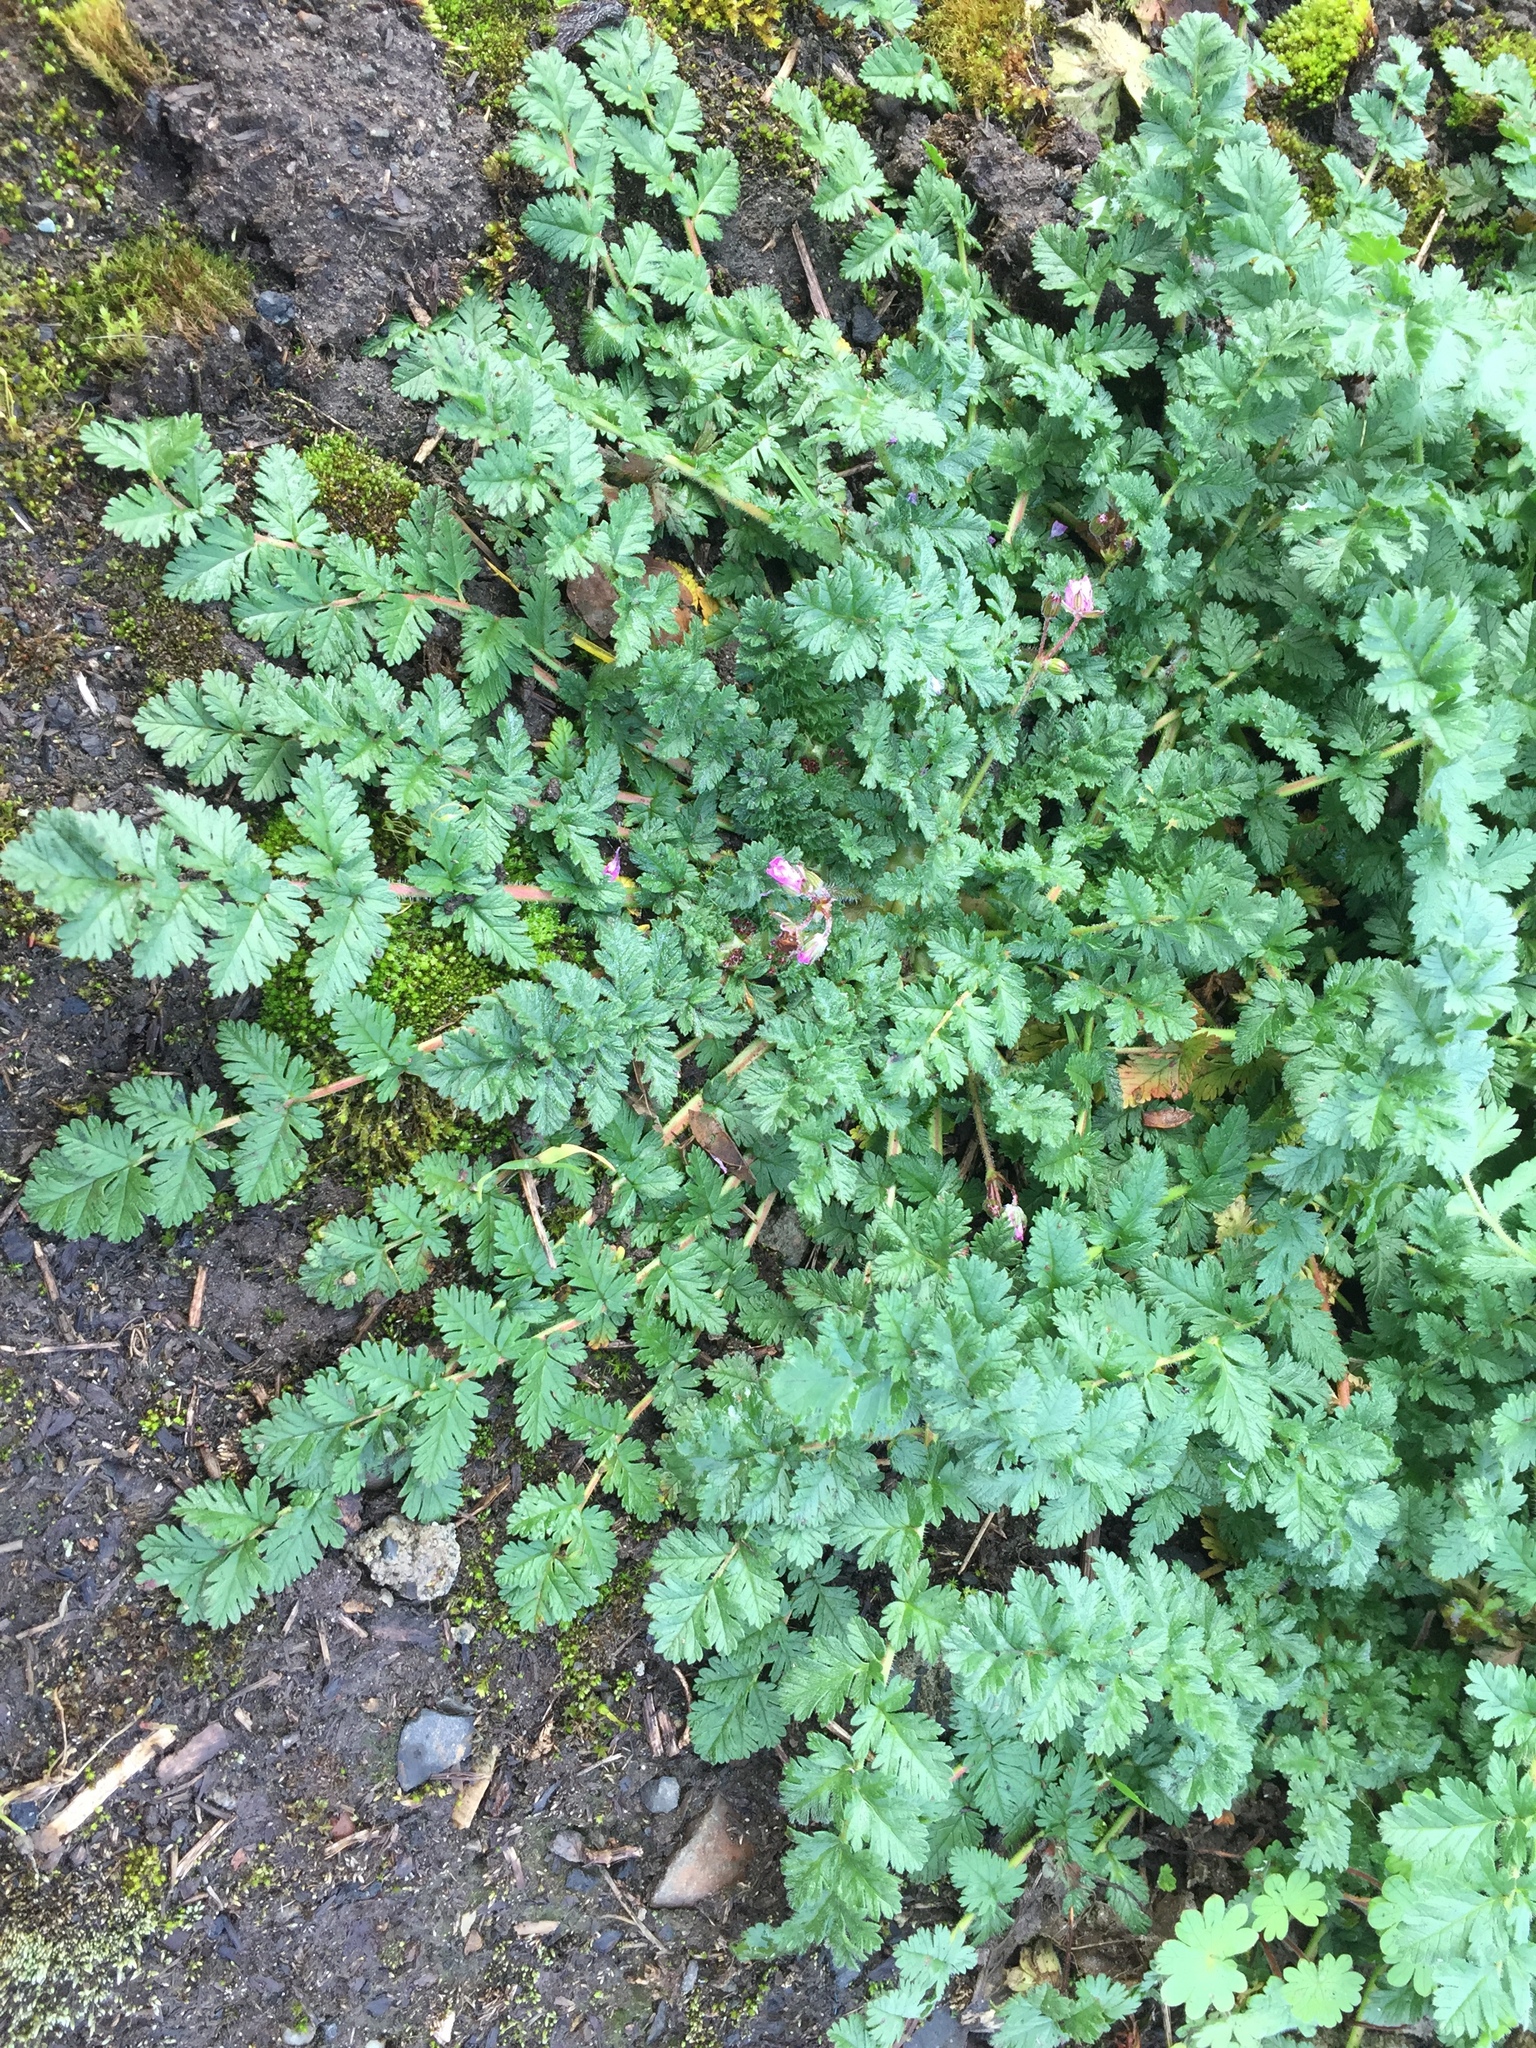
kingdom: Plantae
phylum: Tracheophyta
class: Magnoliopsida
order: Geraniales
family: Geraniaceae
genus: Erodium
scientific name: Erodium cicutarium
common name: Common stork's-bill
